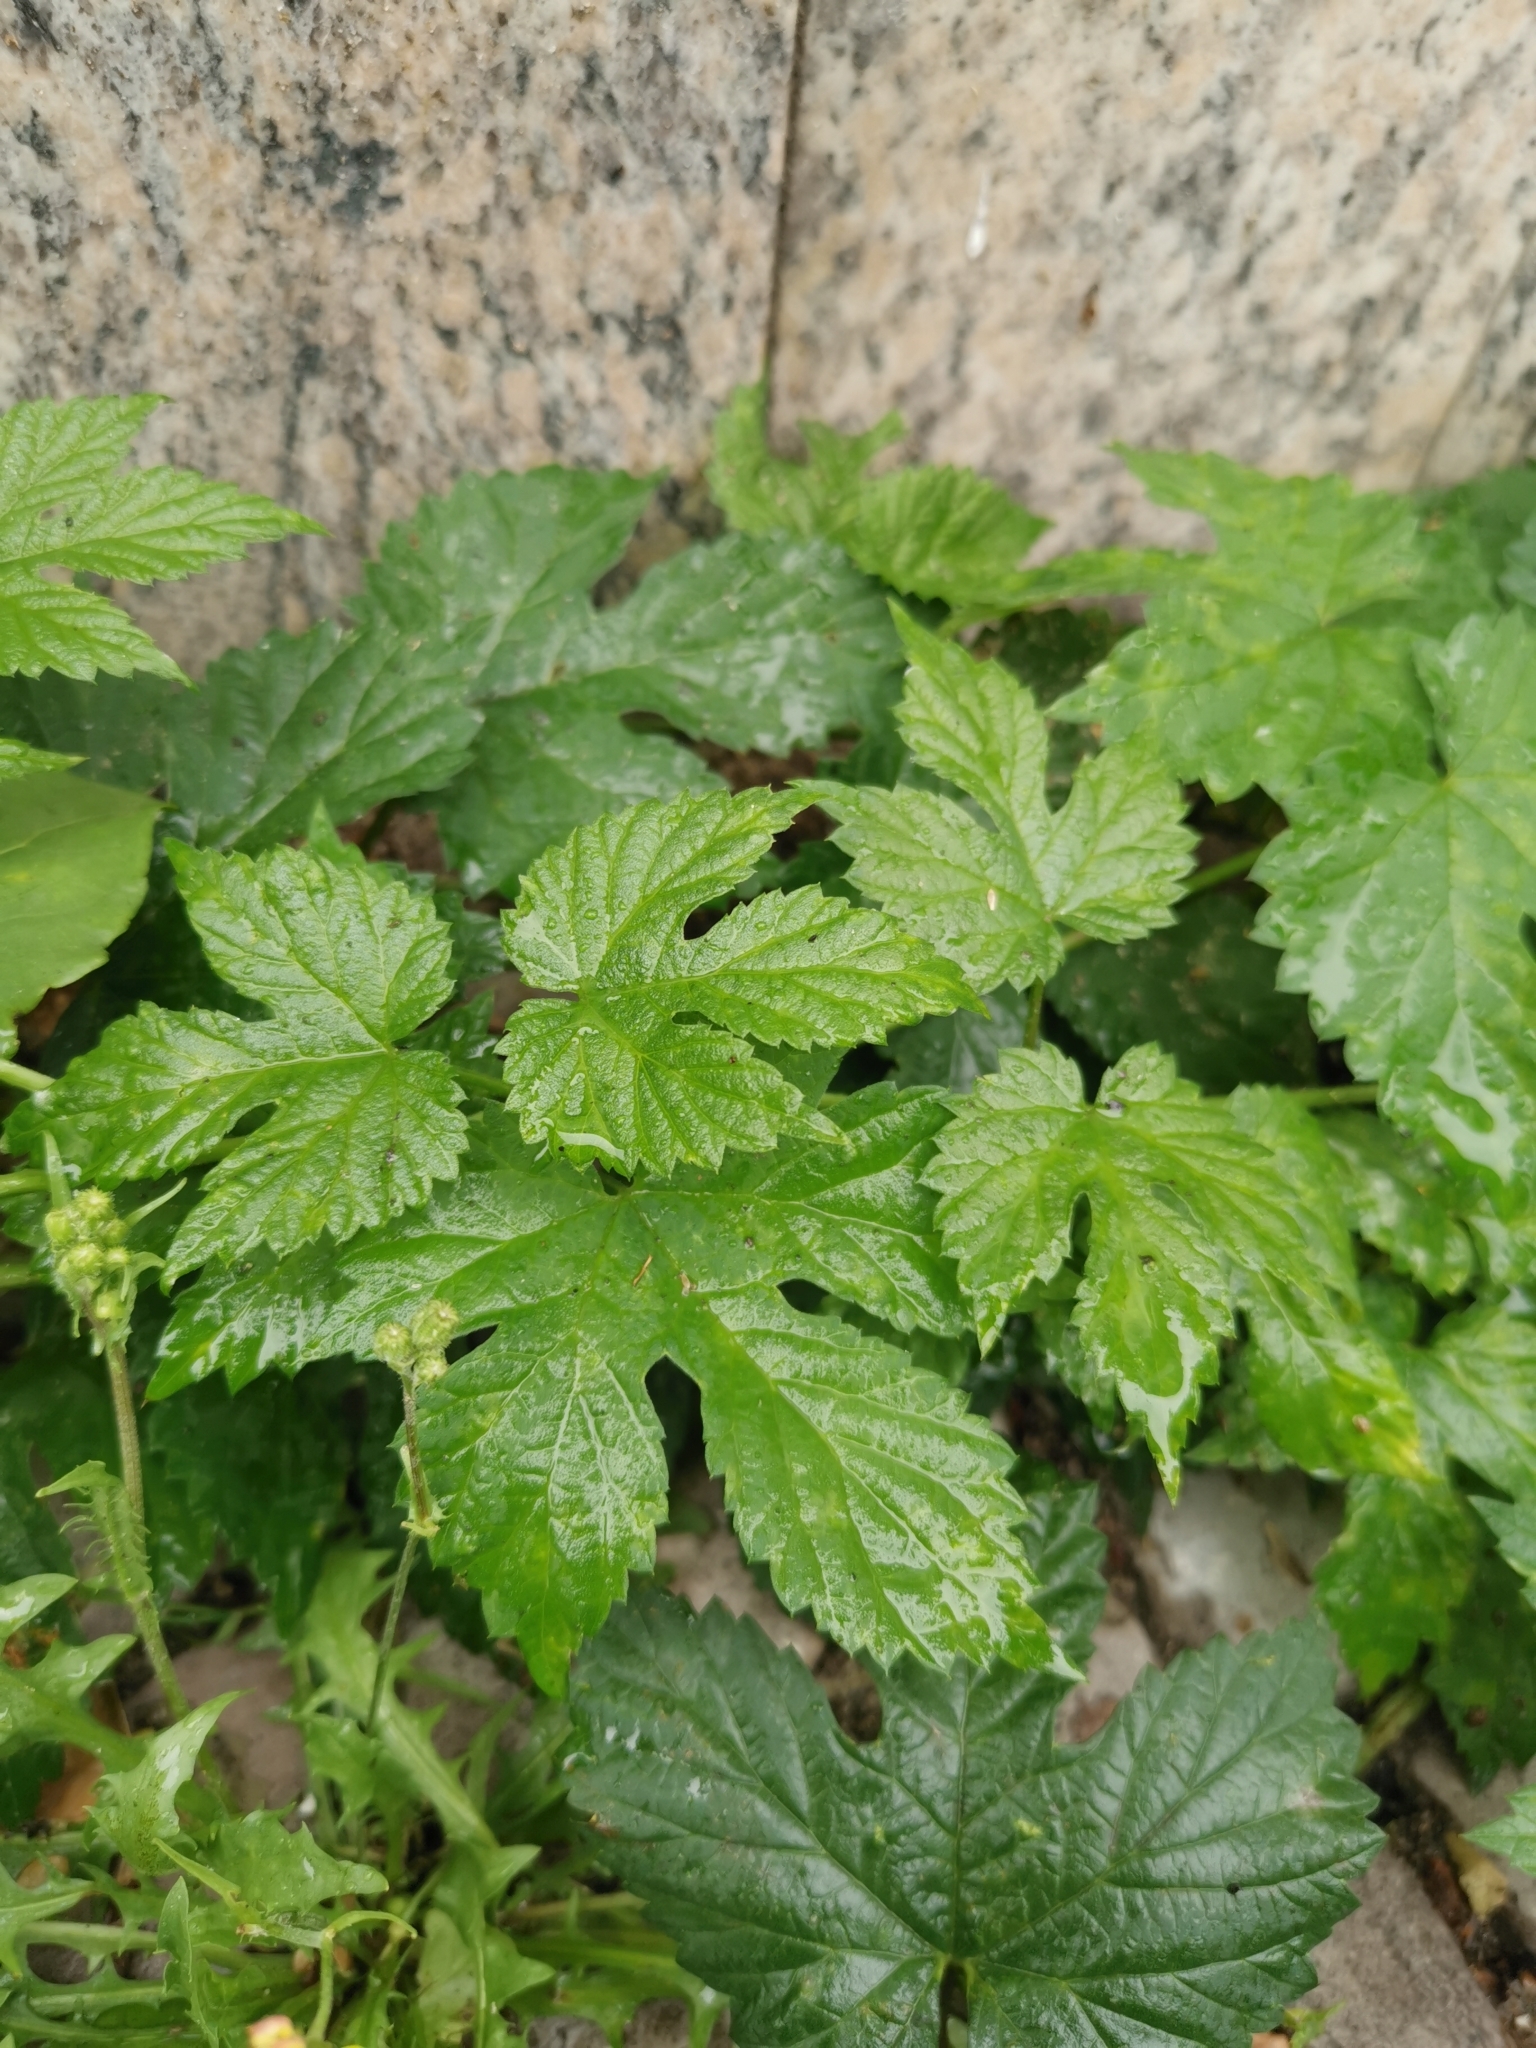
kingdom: Plantae
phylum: Tracheophyta
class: Magnoliopsida
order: Rosales
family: Cannabaceae
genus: Humulus
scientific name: Humulus lupulus
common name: Hop
